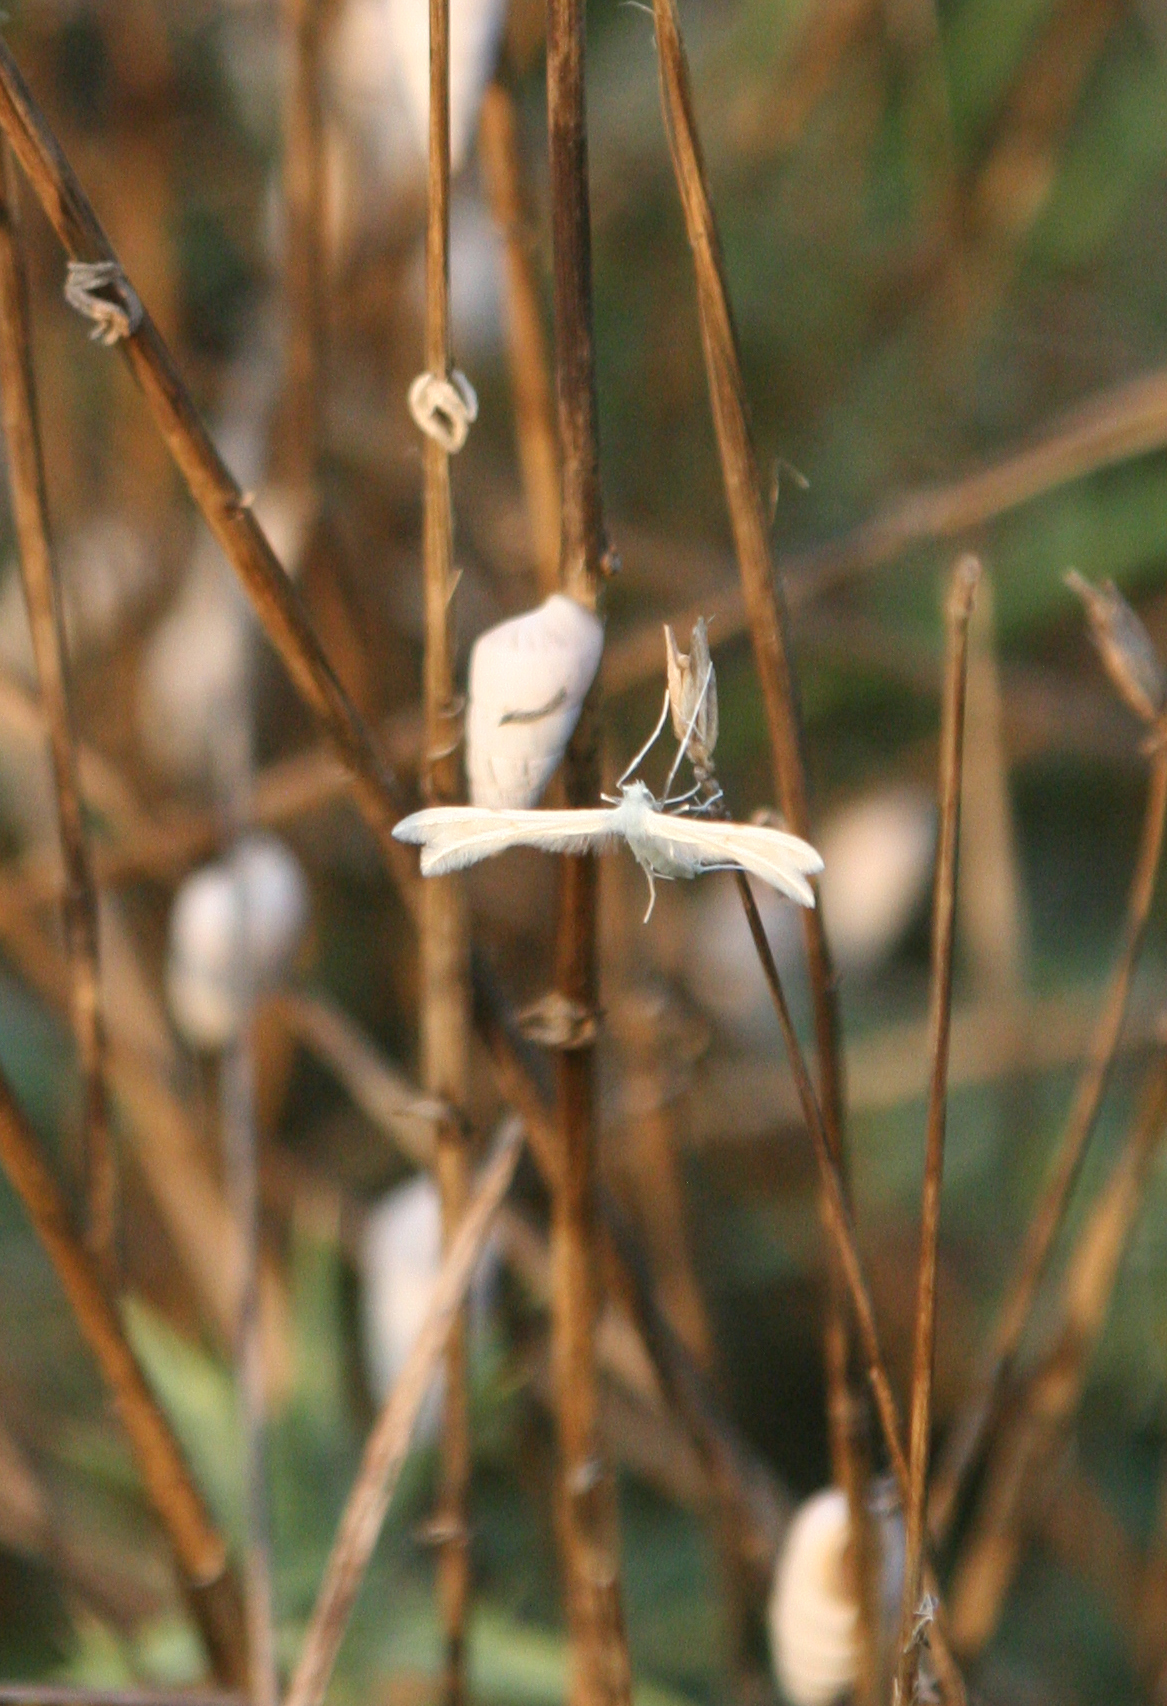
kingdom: Animalia
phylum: Arthropoda
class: Insecta
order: Lepidoptera
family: Pterophoridae
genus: Pterophorus
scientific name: Pterophorus pentadactyla
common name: White plume moth
